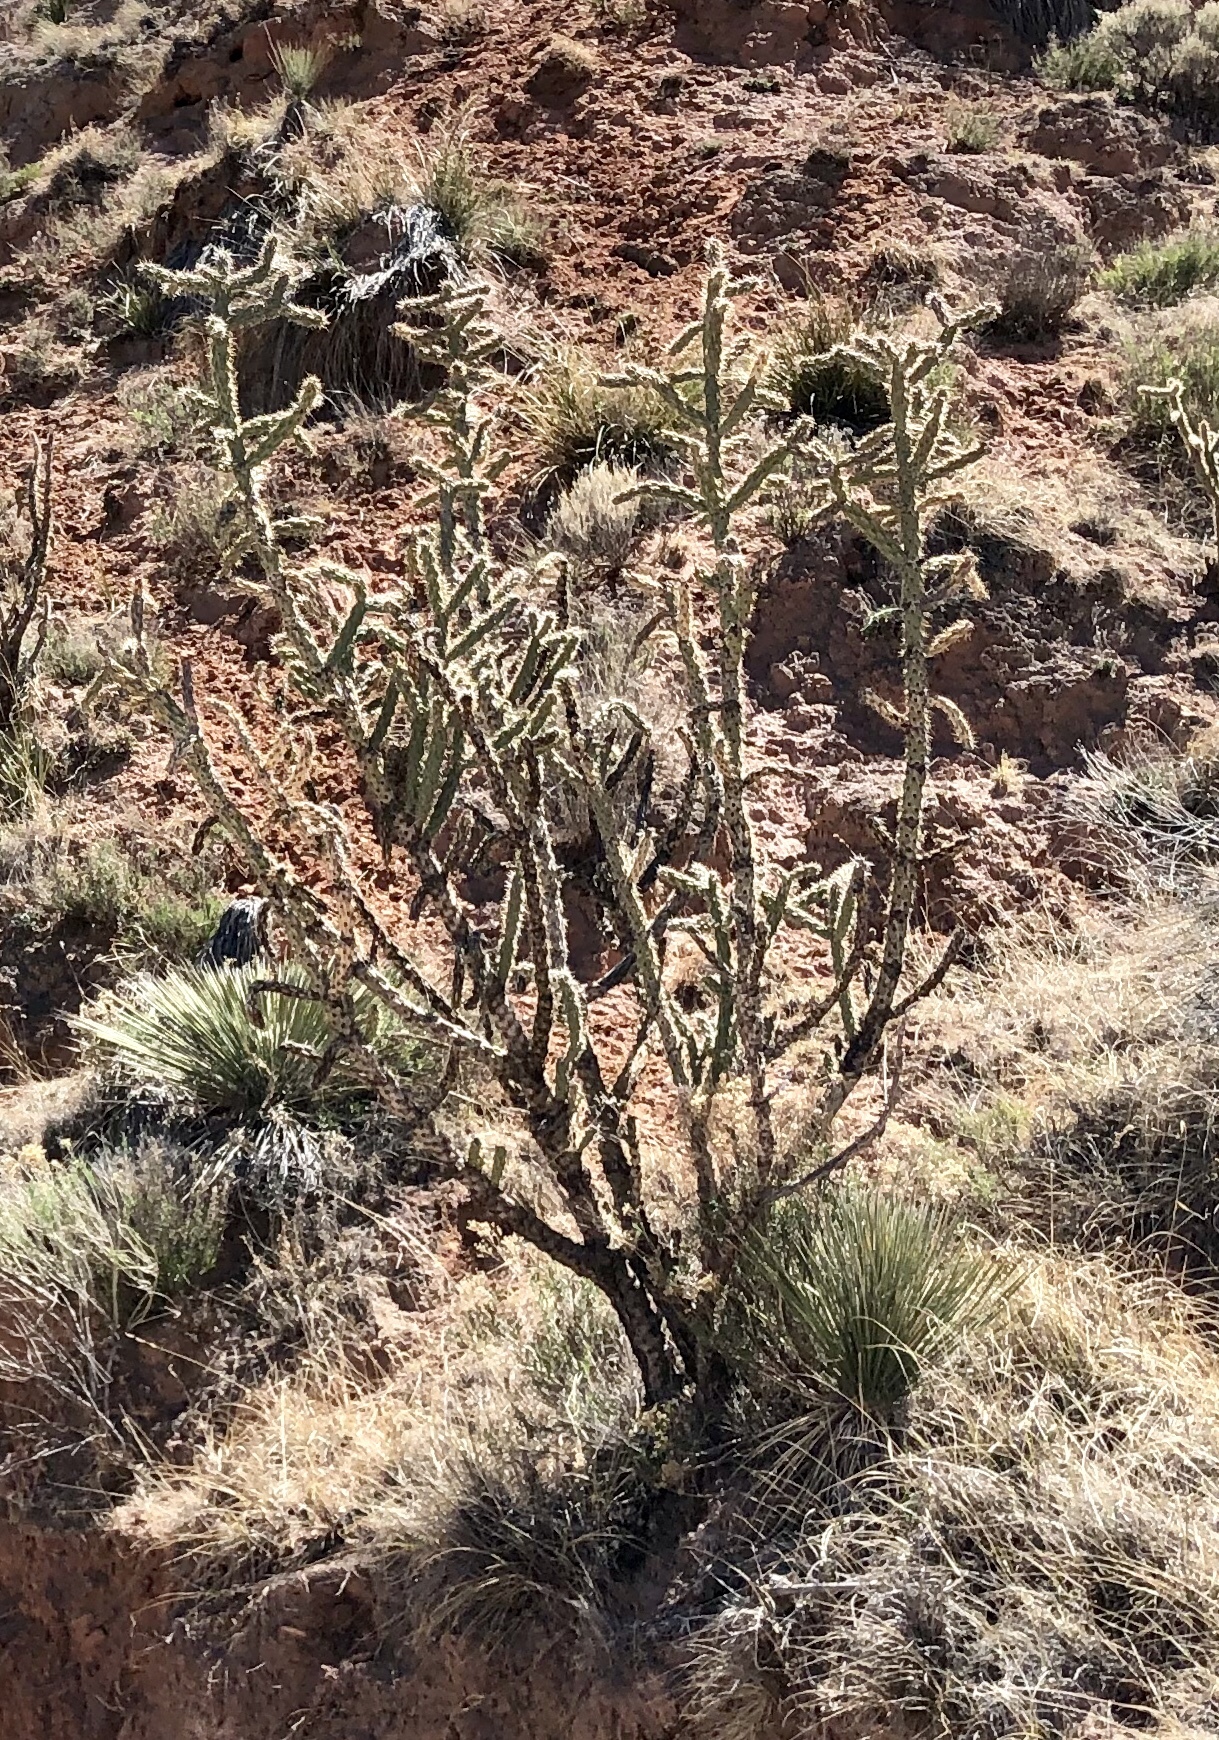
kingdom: Plantae
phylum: Tracheophyta
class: Magnoliopsida
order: Caryophyllales
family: Cactaceae
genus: Cylindropuntia
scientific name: Cylindropuntia imbricata
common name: Candelabrum cactus
